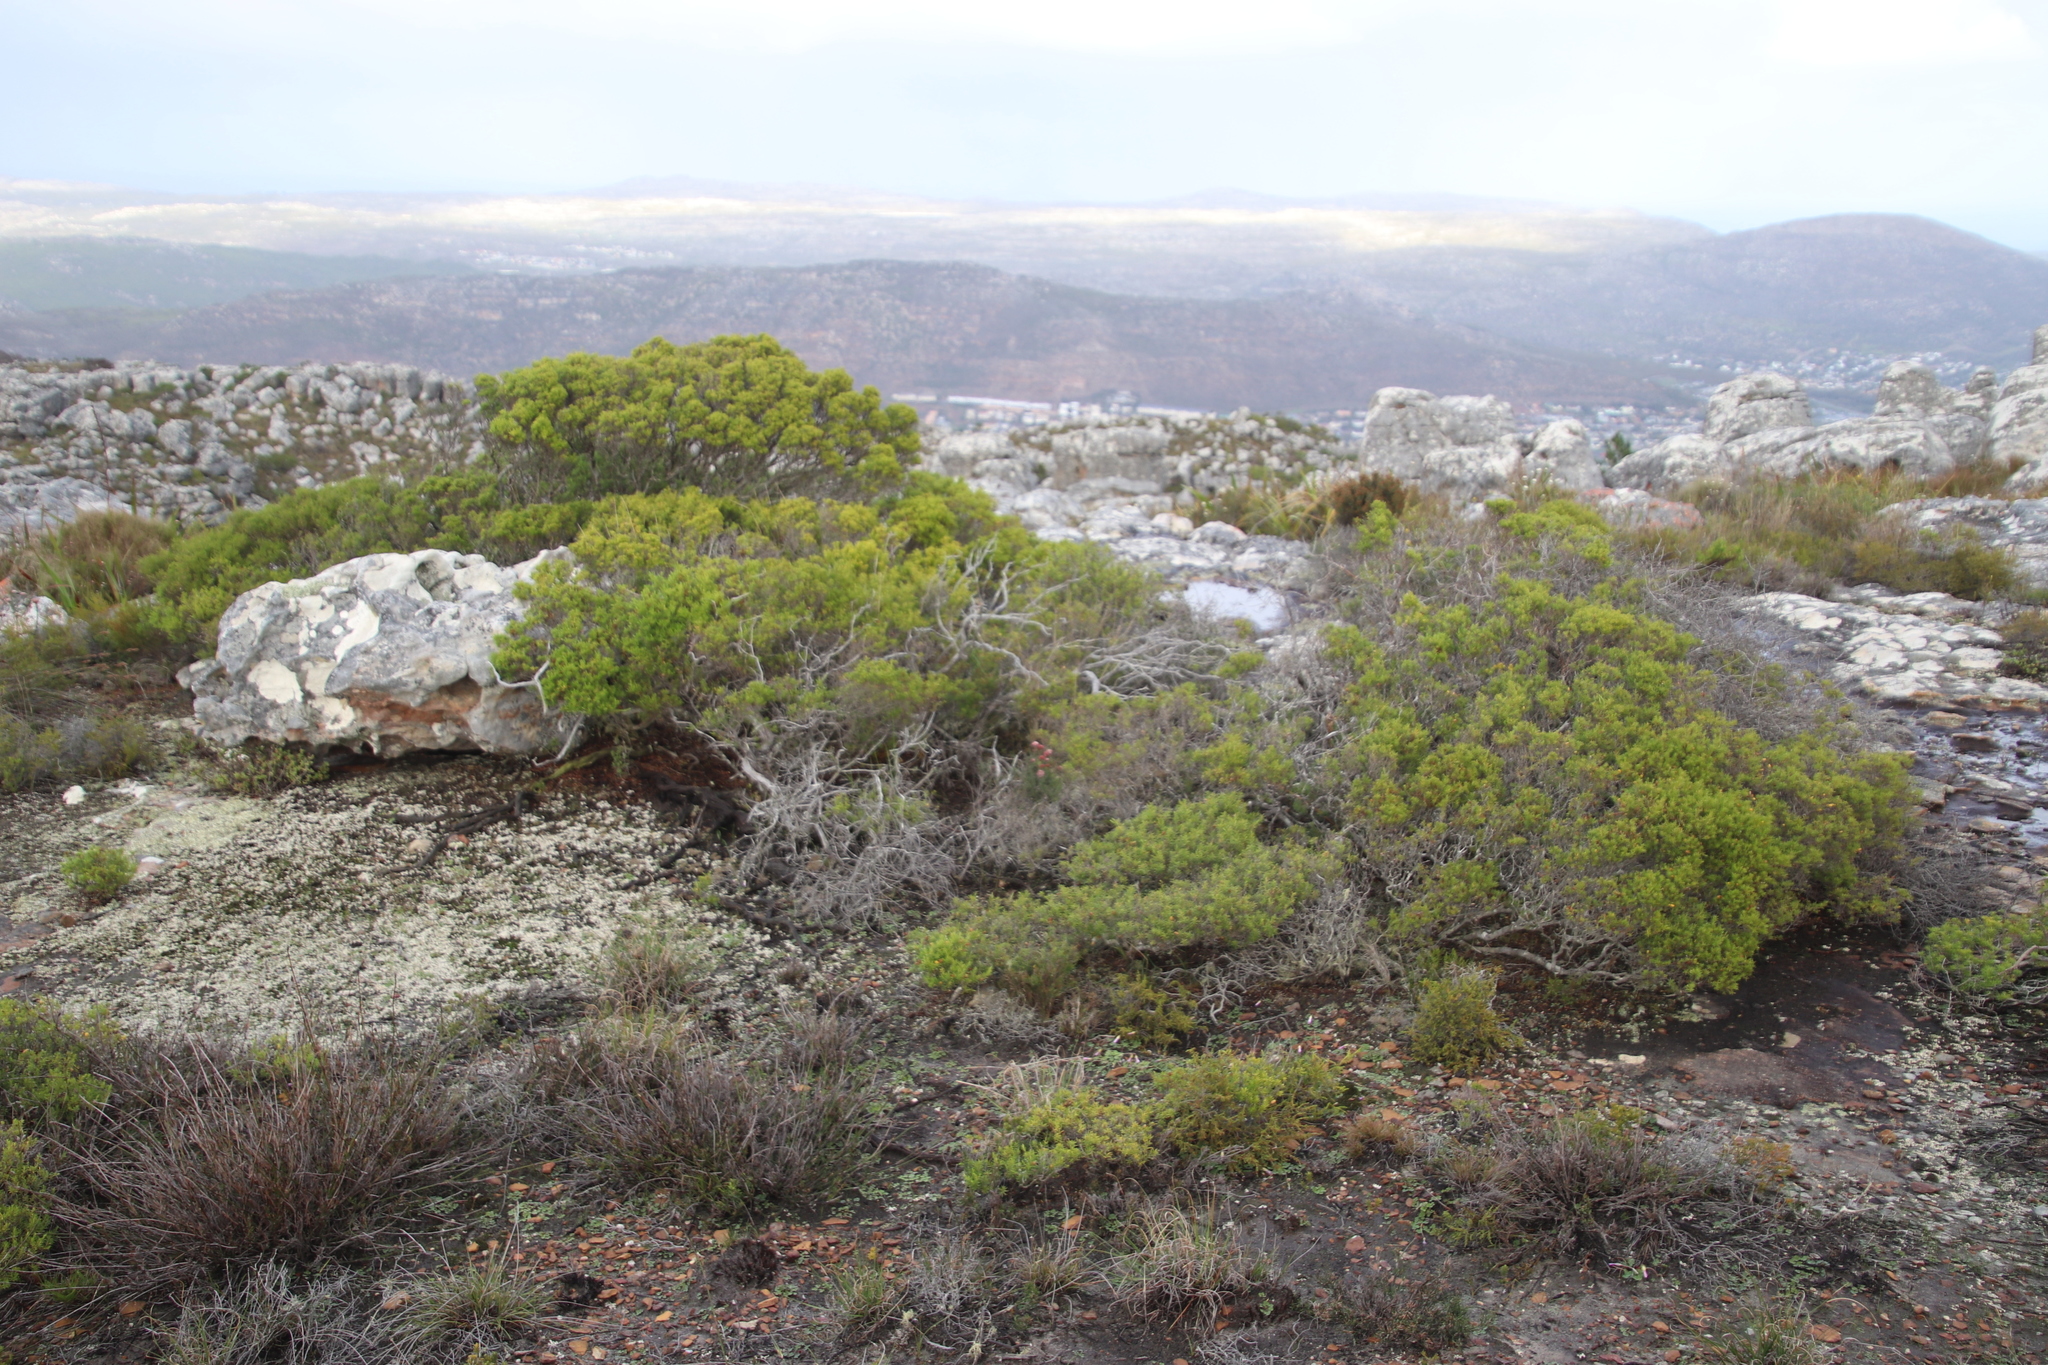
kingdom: Plantae
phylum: Tracheophyta
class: Magnoliopsida
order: Sapindales
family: Rutaceae
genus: Coleonema
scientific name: Coleonema album
